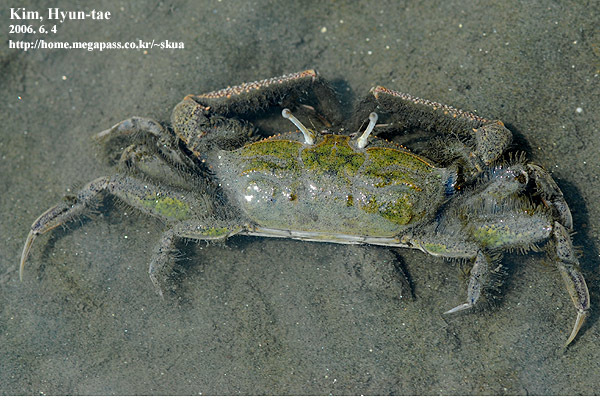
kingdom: Animalia
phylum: Arthropoda
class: Malacostraca
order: Decapoda
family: Macrophthalmidae
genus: Macrophthalmus
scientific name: Macrophthalmus abbreviatus
